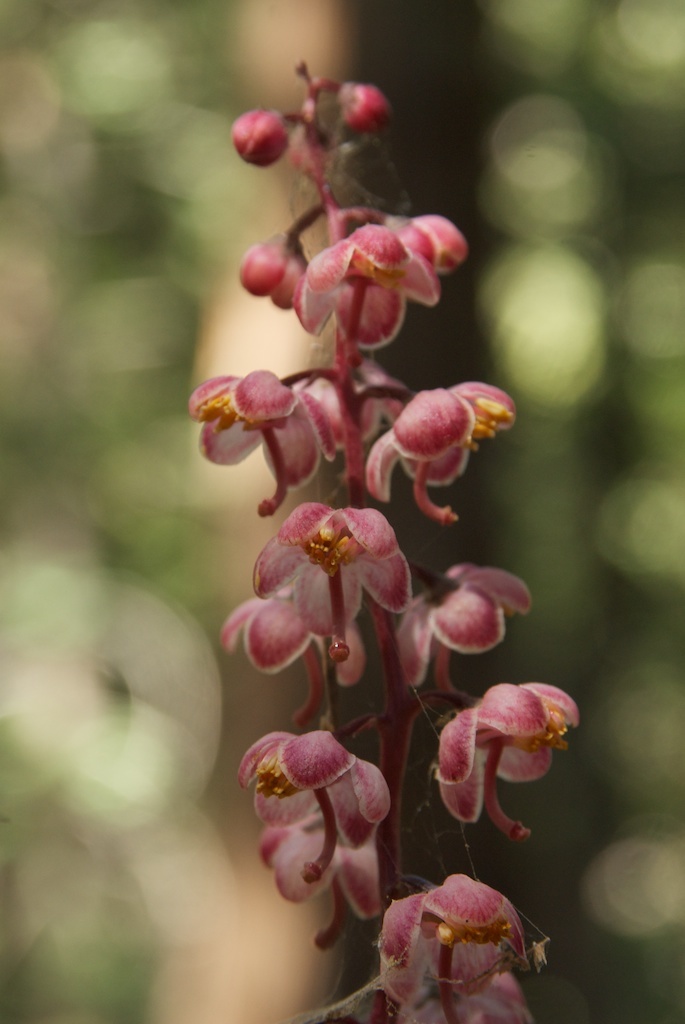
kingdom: Plantae
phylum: Tracheophyta
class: Magnoliopsida
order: Ericales
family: Ericaceae
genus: Pyrola
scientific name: Pyrola aphylla
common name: Leafless wintergreen
